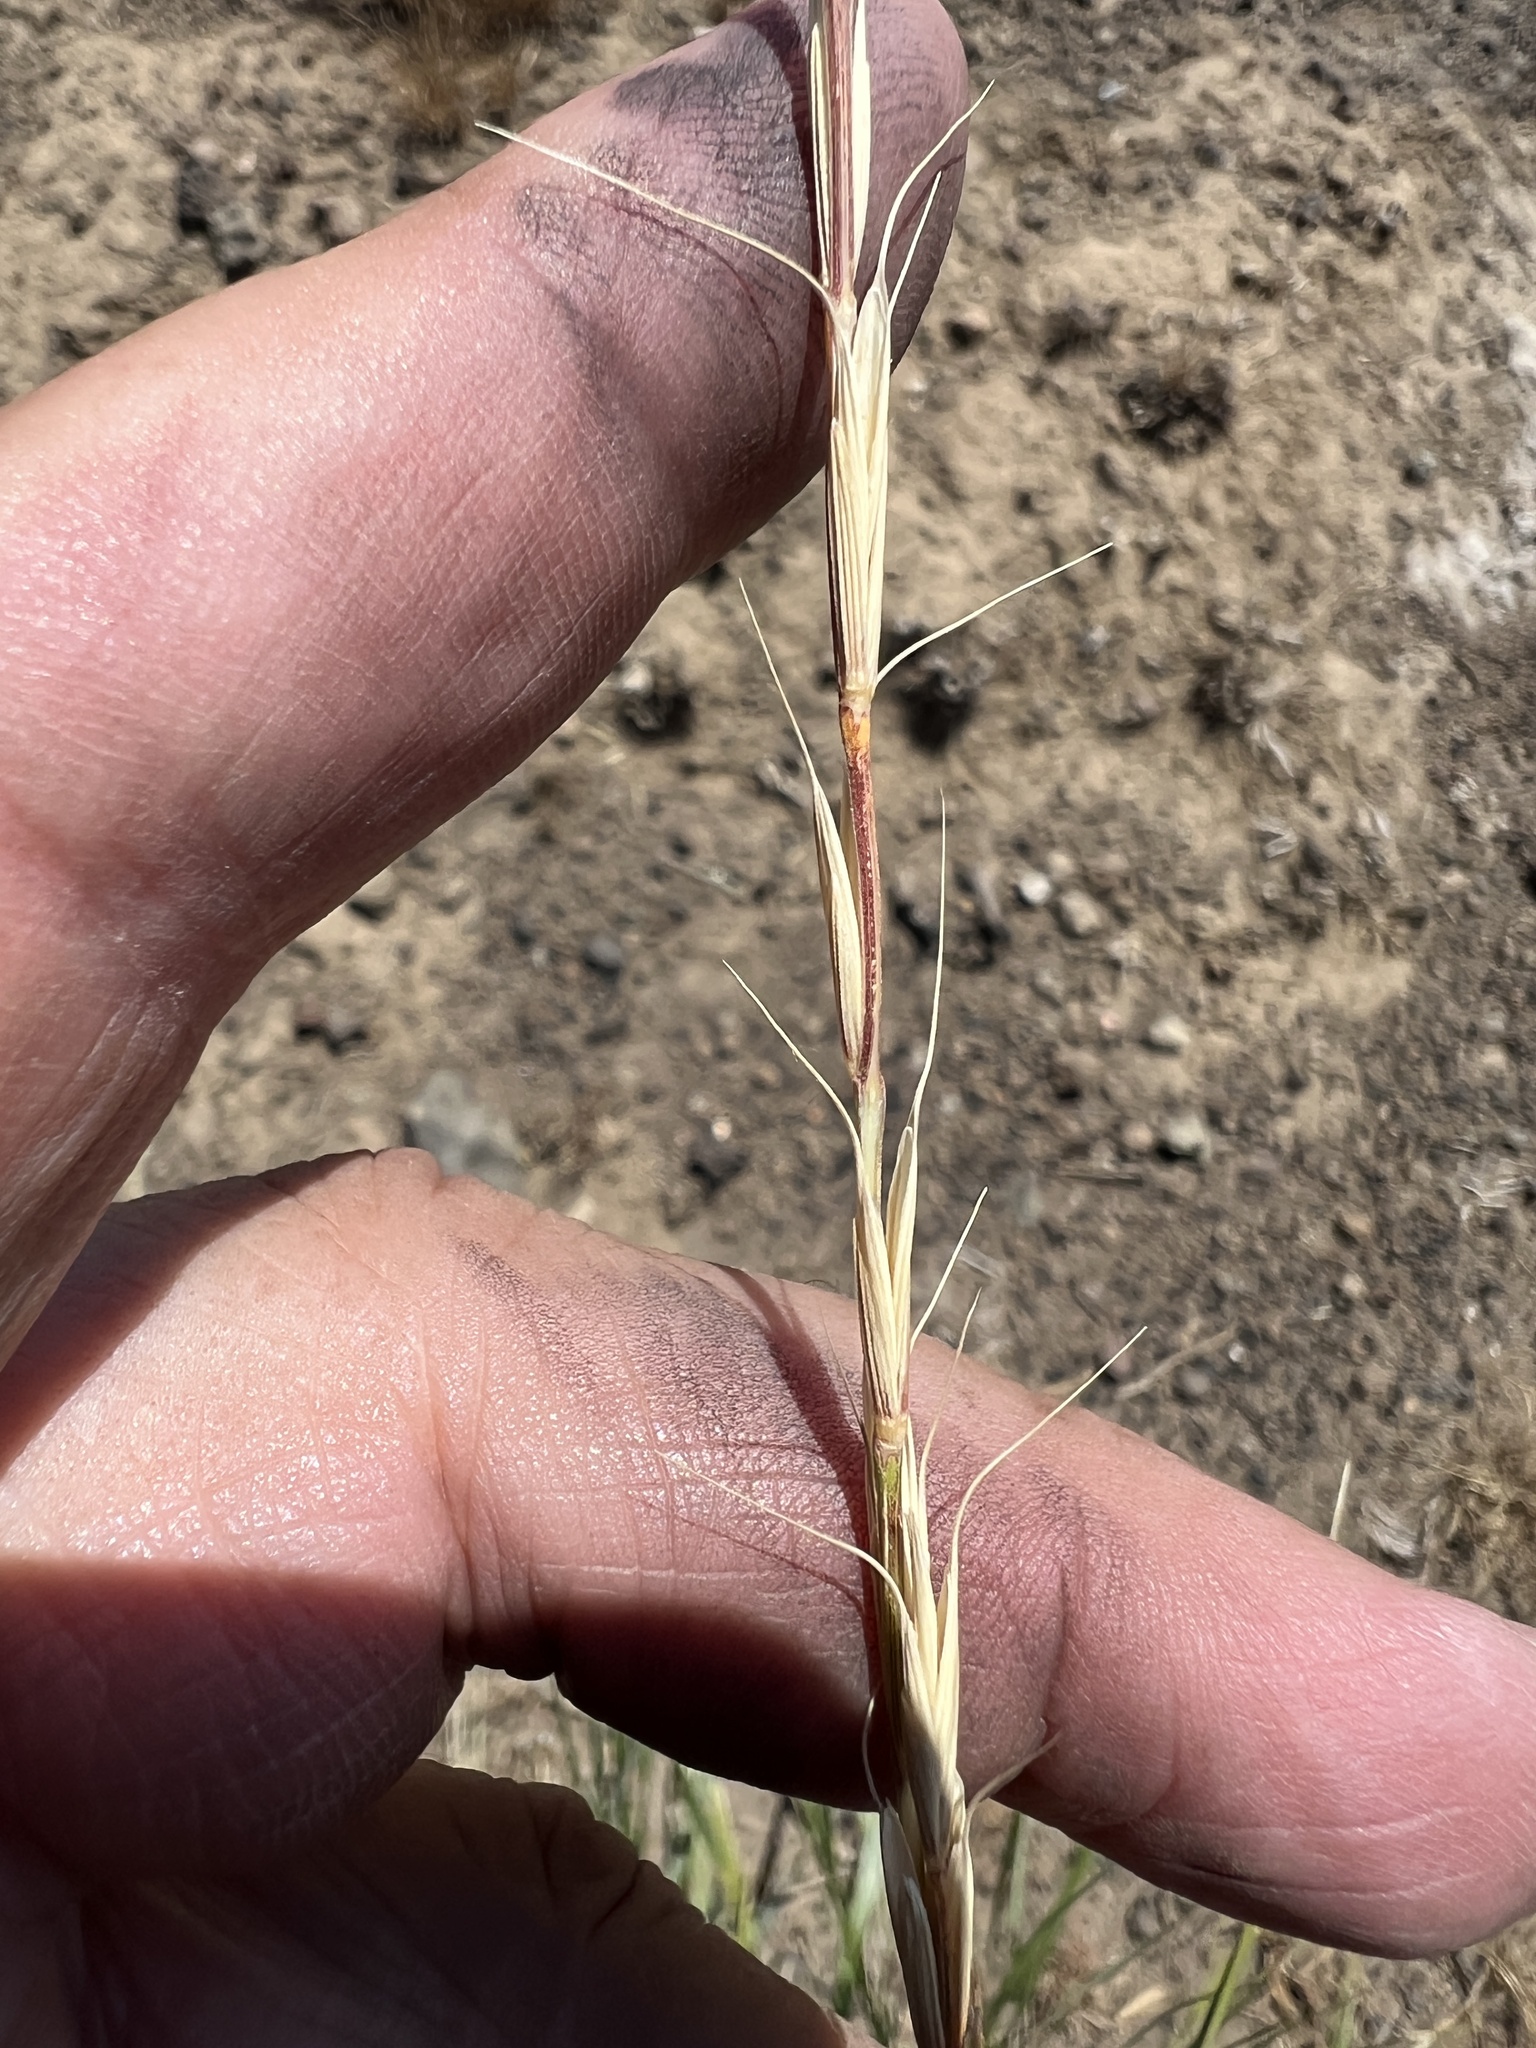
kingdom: Plantae
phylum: Tracheophyta
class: Liliopsida
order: Poales
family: Poaceae
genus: Pseudoroegneria
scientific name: Pseudoroegneria spicata
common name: Bluebunch wheatgrass
